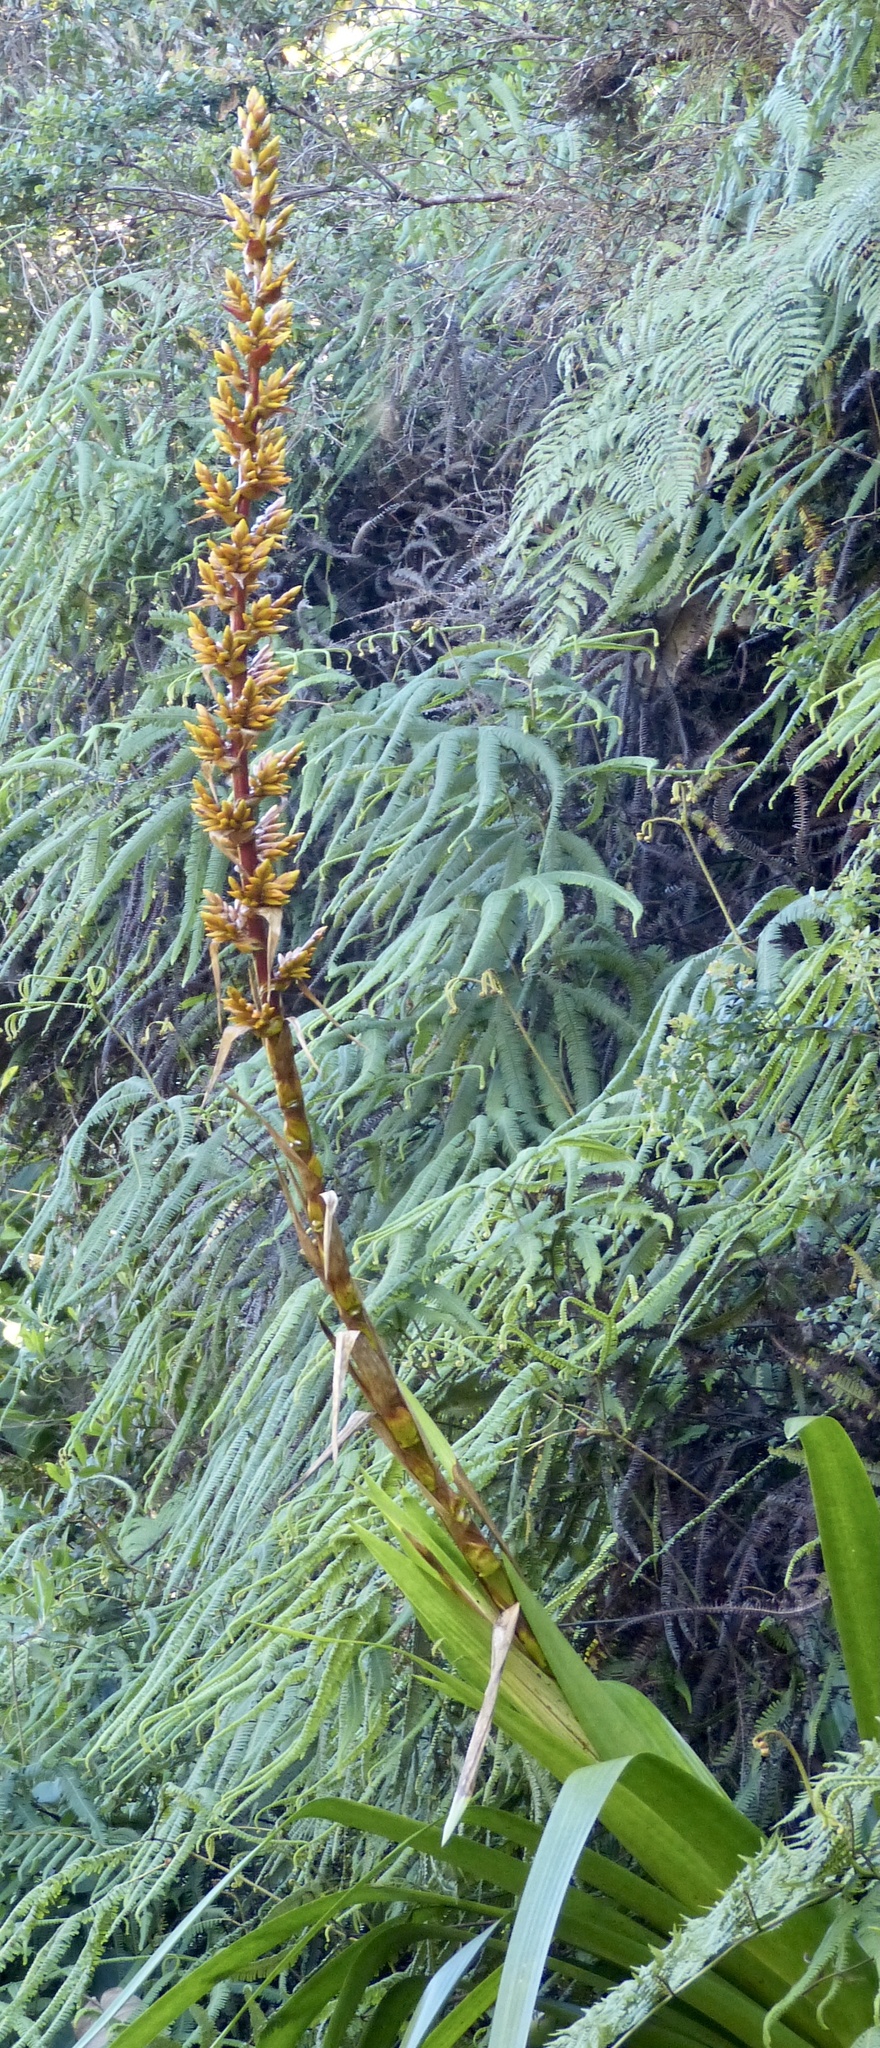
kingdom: Plantae
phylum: Tracheophyta
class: Liliopsida
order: Poales
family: Bromeliaceae
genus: Cipuropsis
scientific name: Cipuropsis hospitalis
